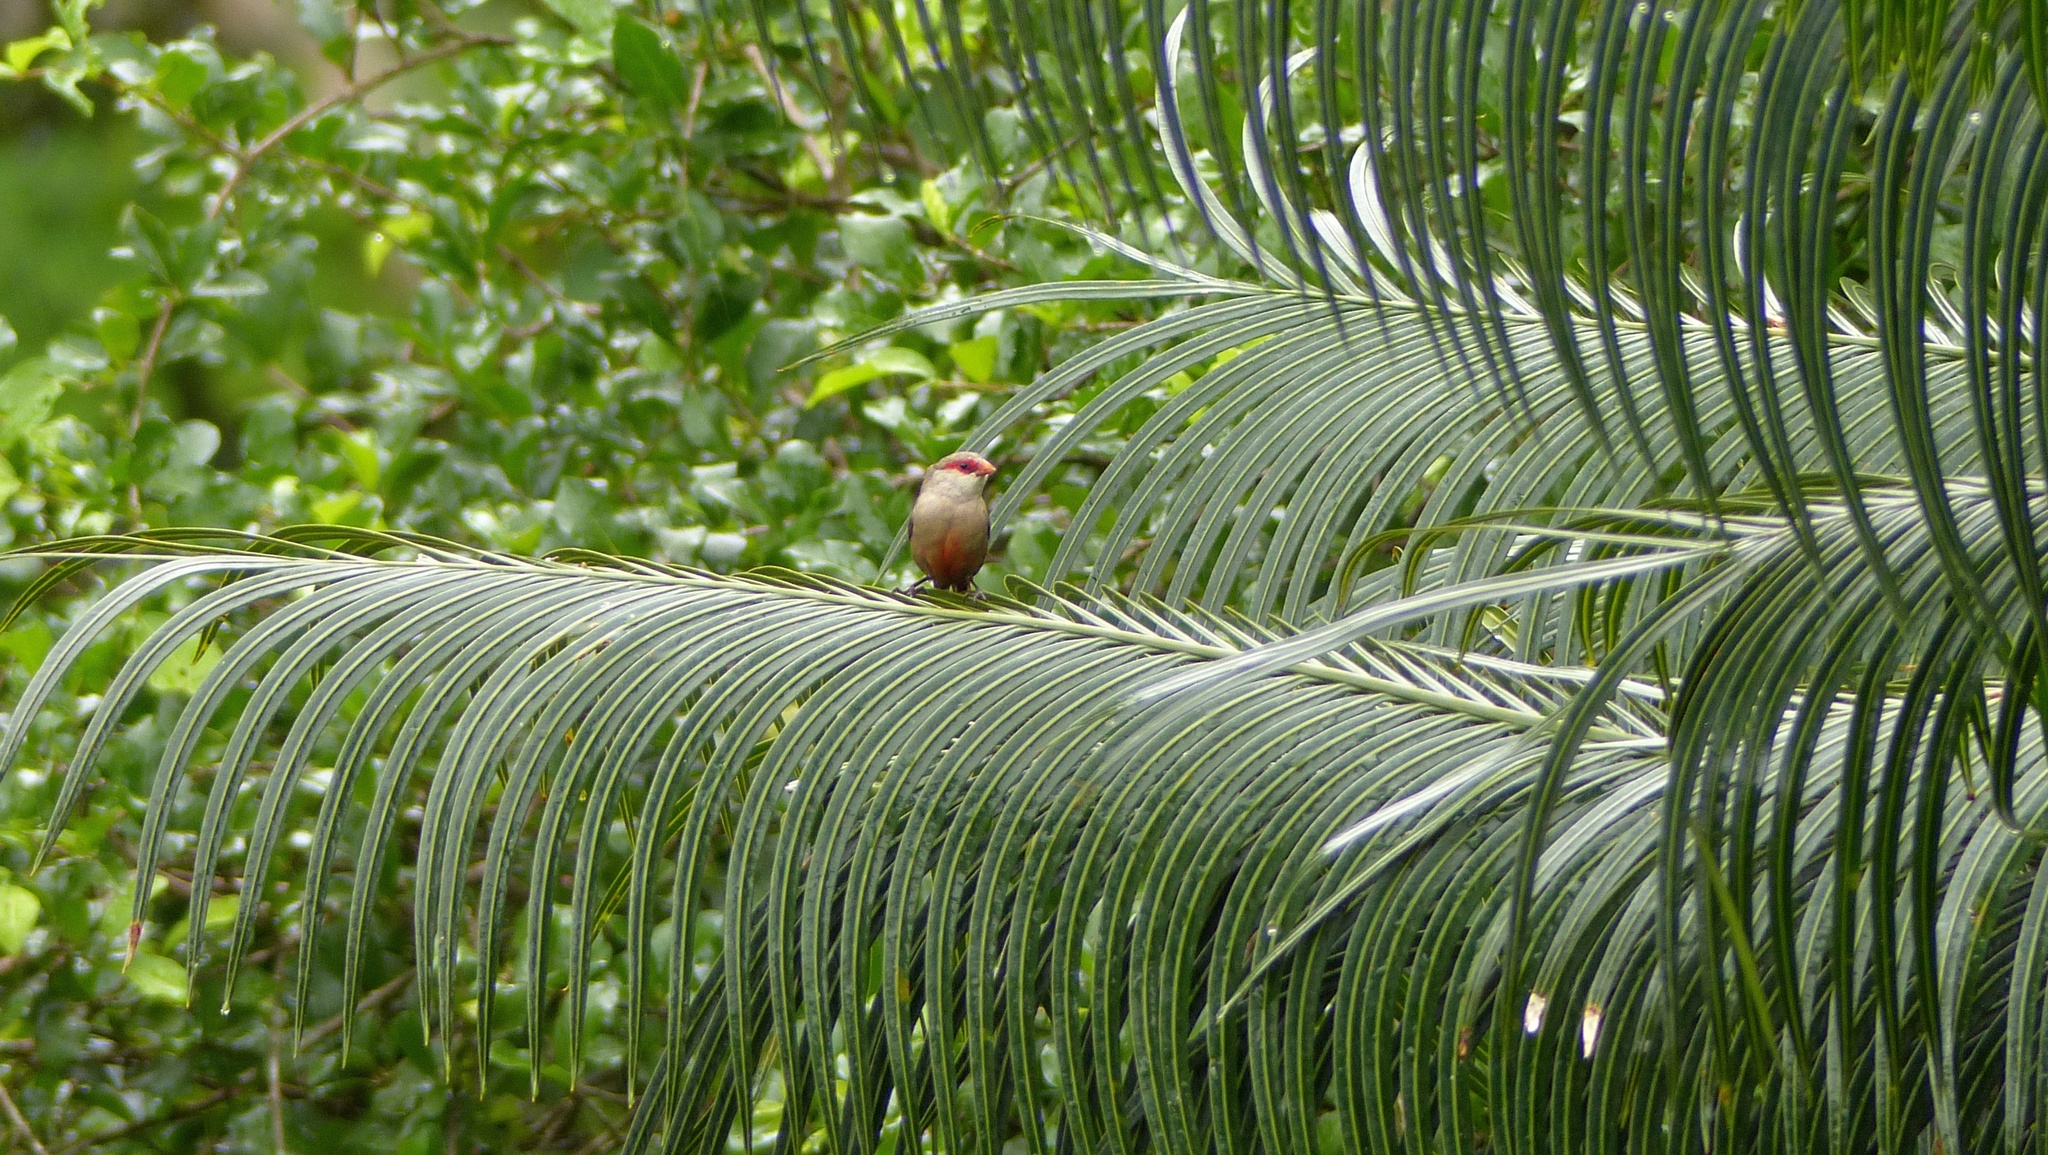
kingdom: Animalia
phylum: Chordata
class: Aves
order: Passeriformes
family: Estrildidae
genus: Estrilda
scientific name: Estrilda astrild
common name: Common waxbill
